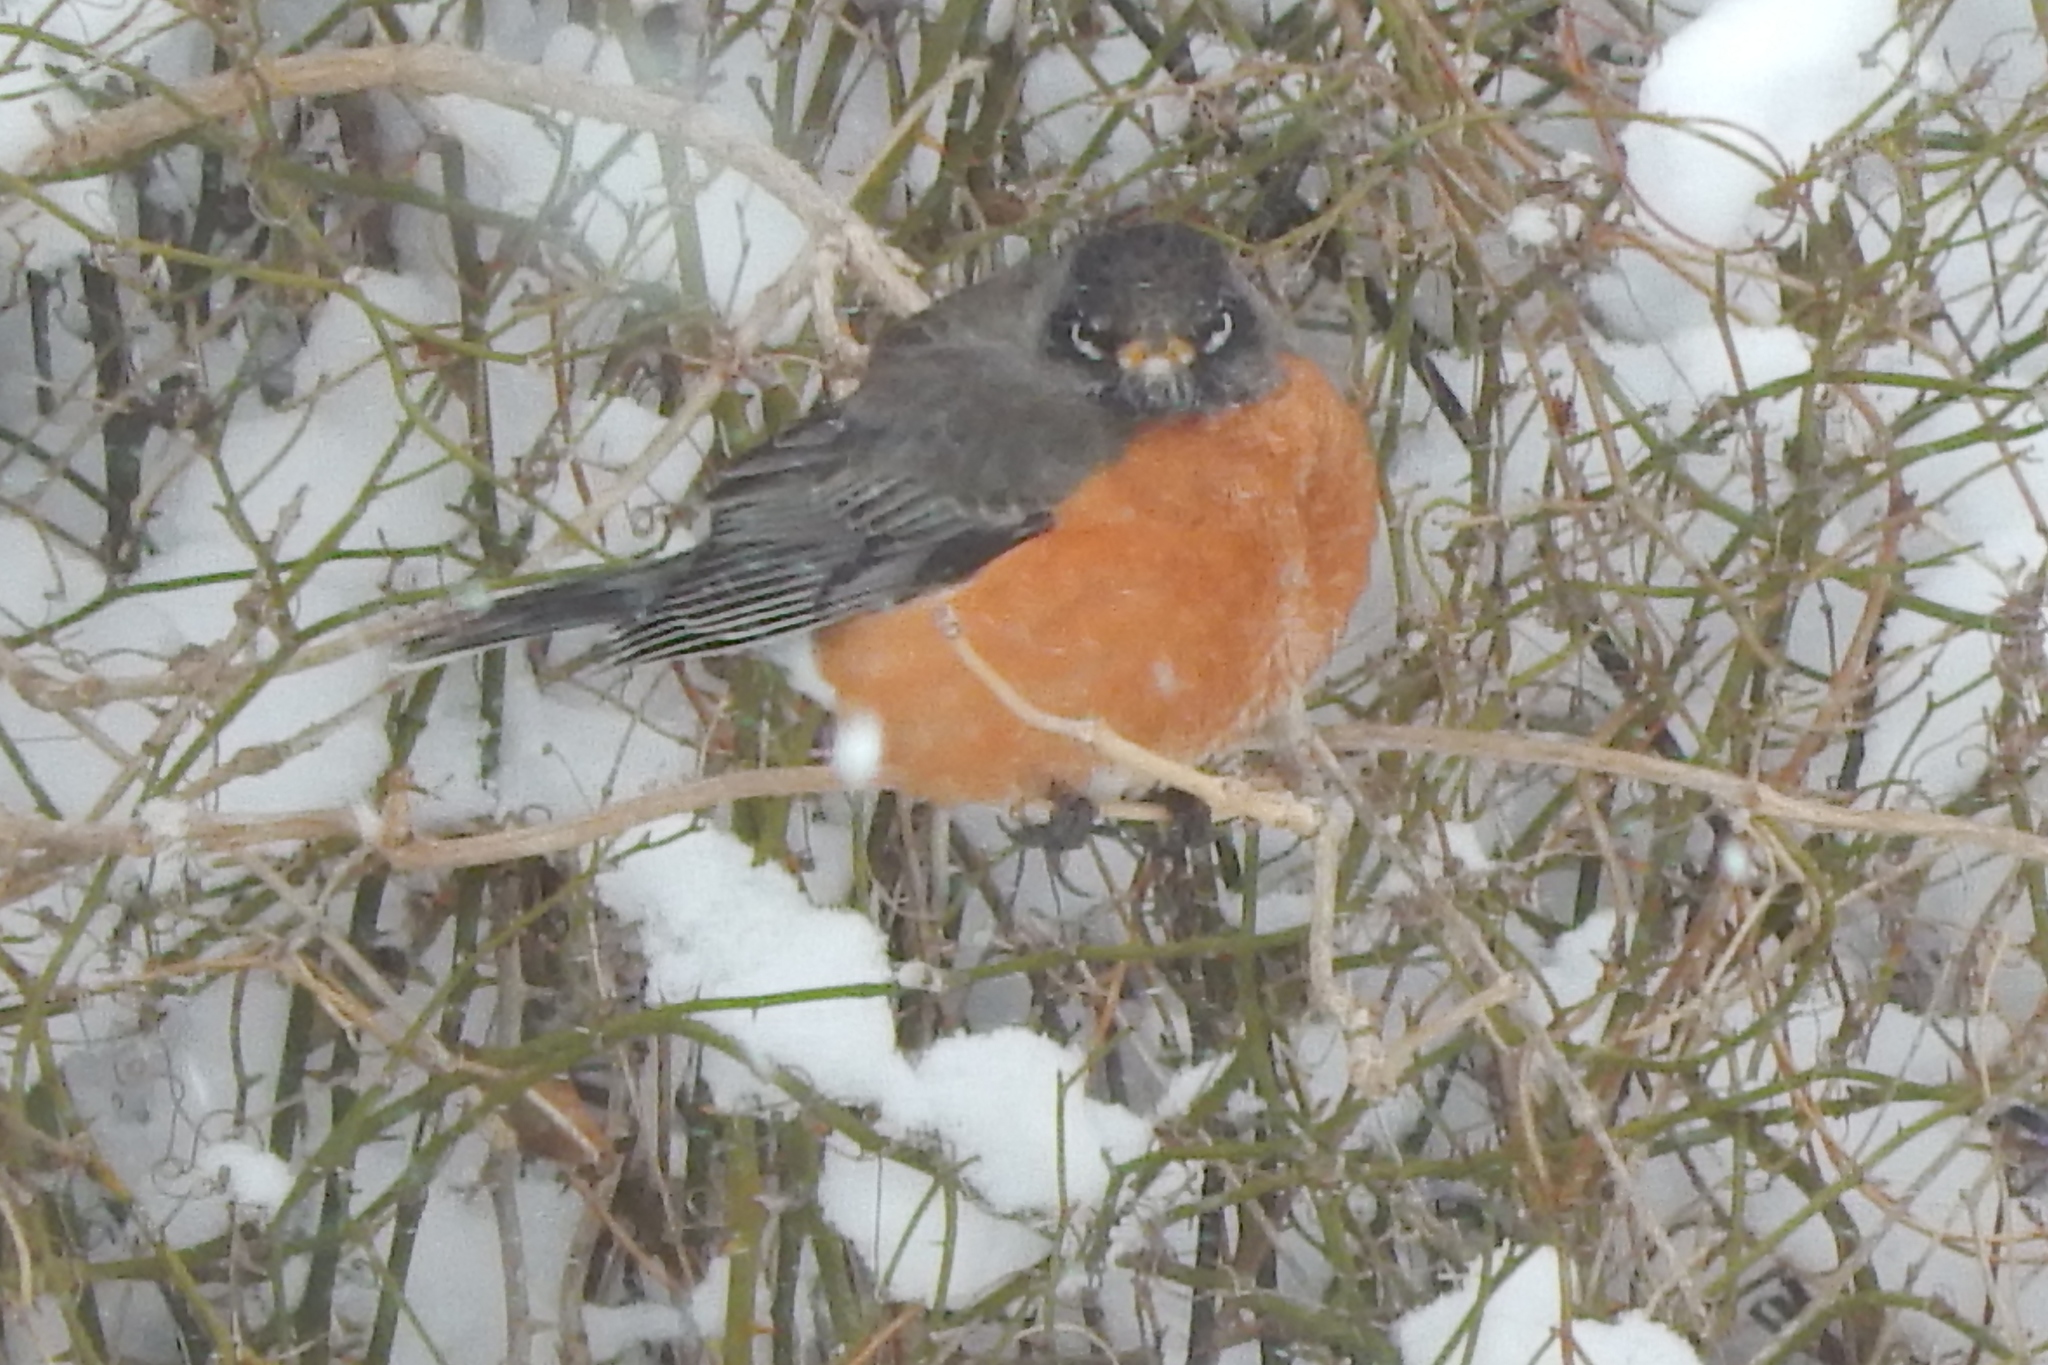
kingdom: Animalia
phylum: Chordata
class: Aves
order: Passeriformes
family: Turdidae
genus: Turdus
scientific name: Turdus migratorius
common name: American robin
